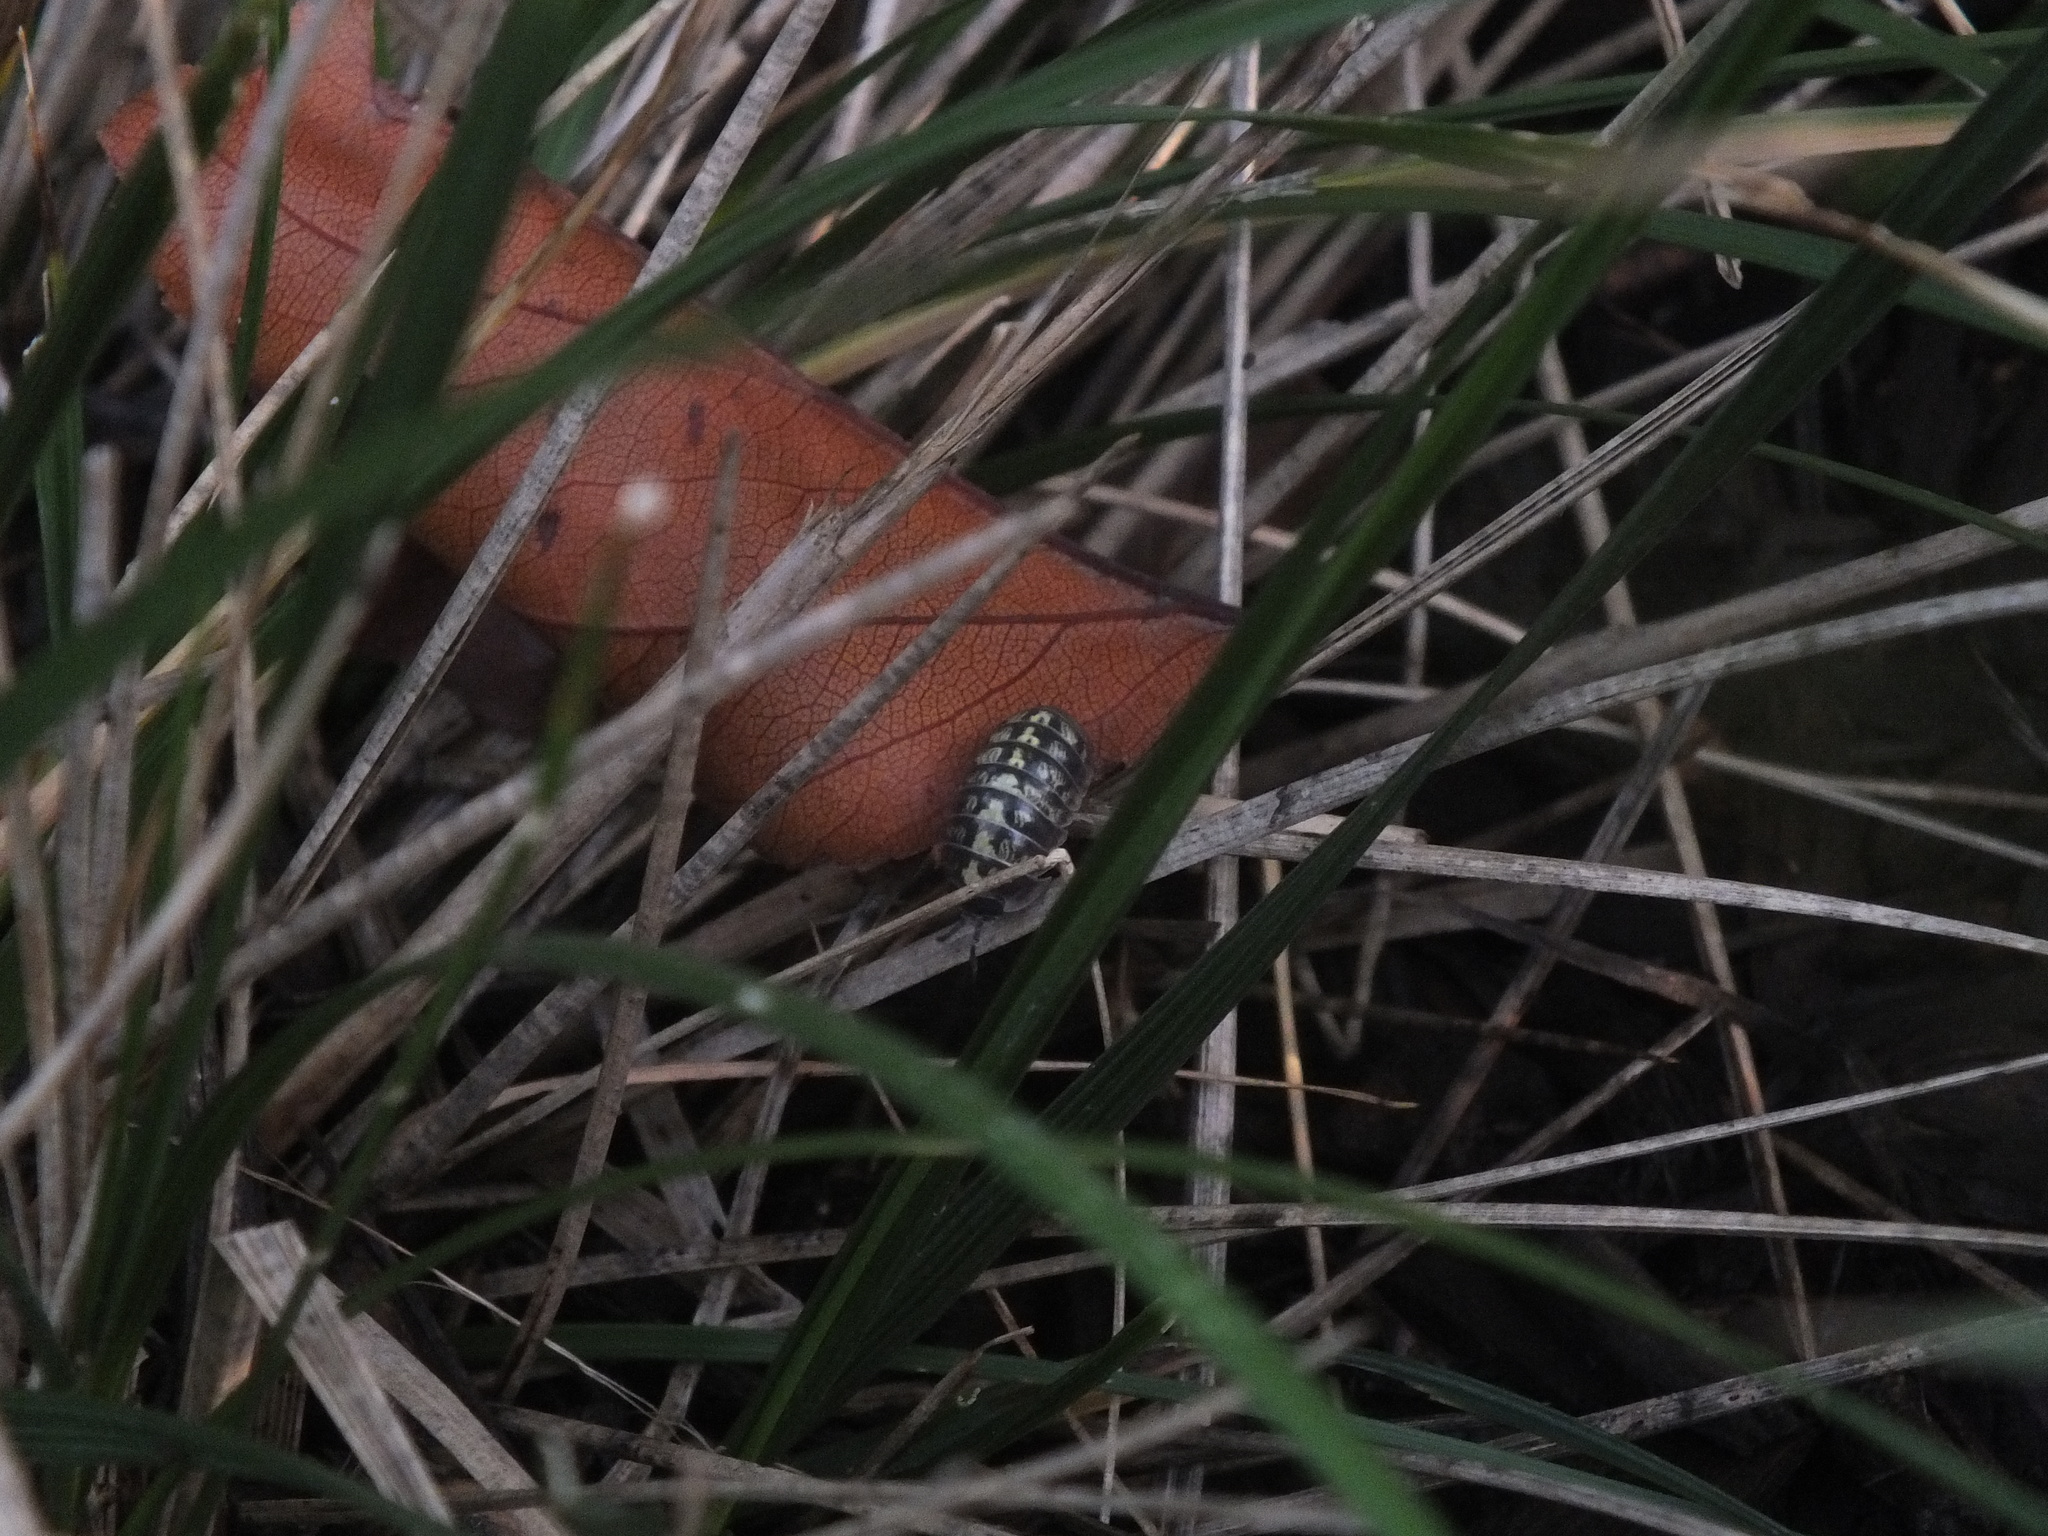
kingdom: Animalia
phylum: Arthropoda
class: Malacostraca
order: Isopoda
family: Armadillidiidae
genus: Armadillidium
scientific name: Armadillidium vulgare
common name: Common pill woodlouse
